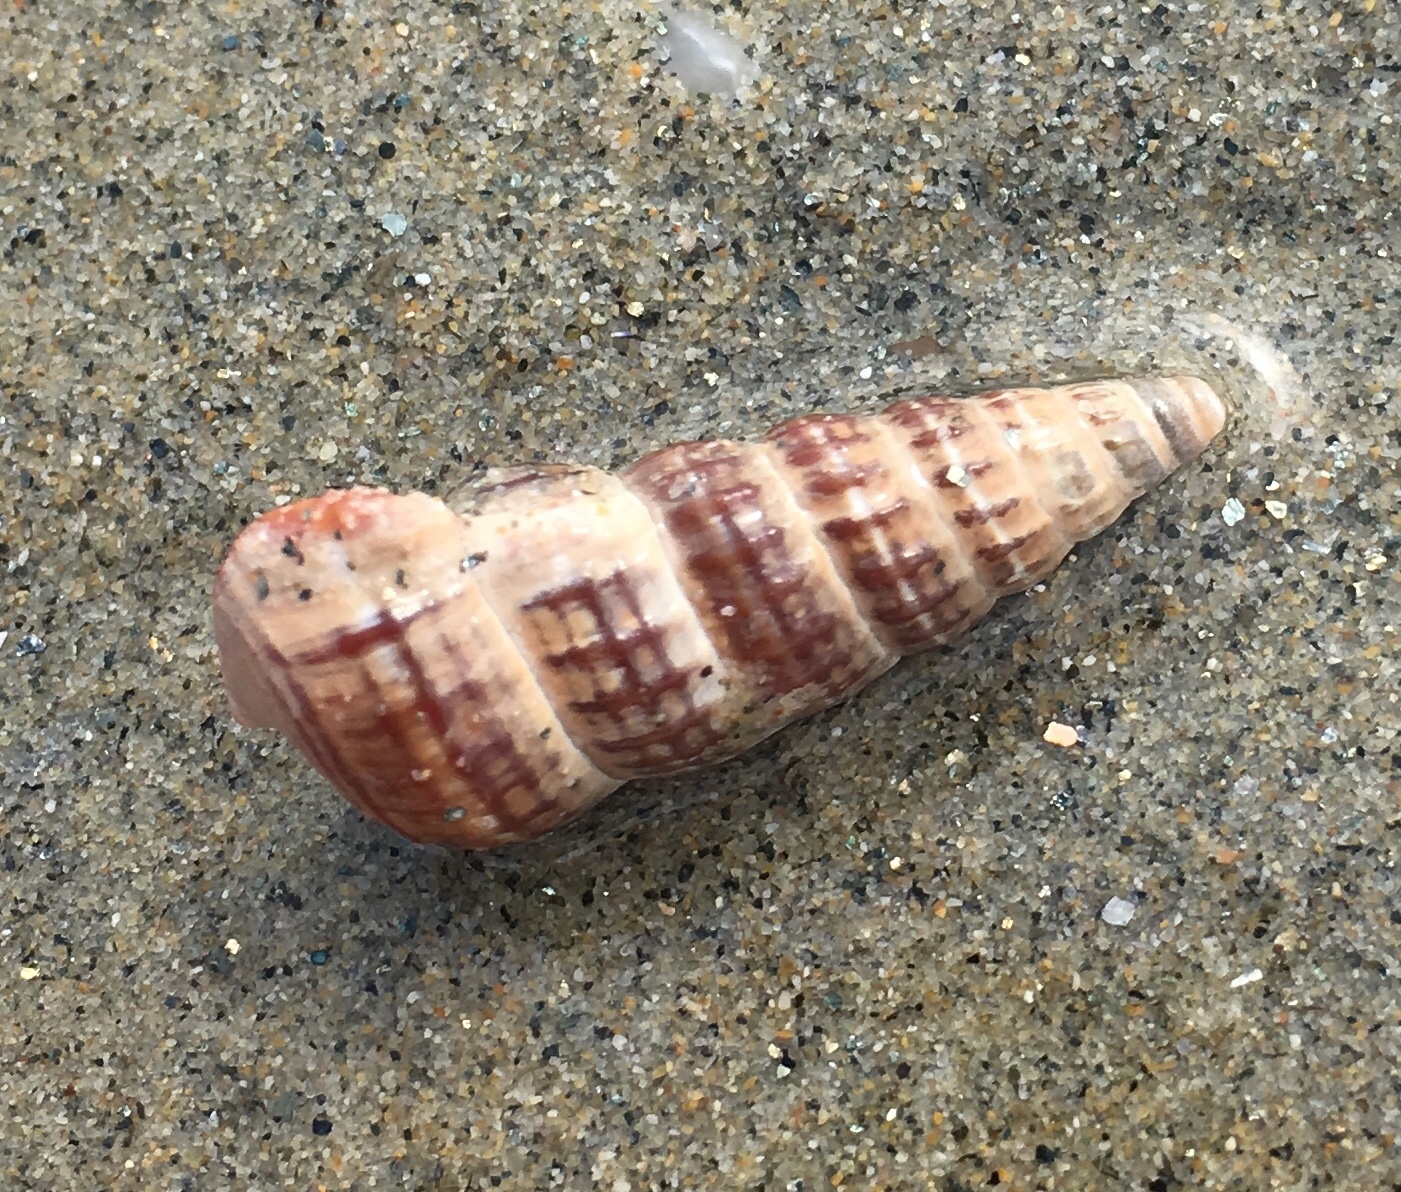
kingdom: Animalia
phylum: Mollusca
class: Gastropoda
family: Potamididae
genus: Cerithideopsis
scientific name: Cerithideopsis californica
